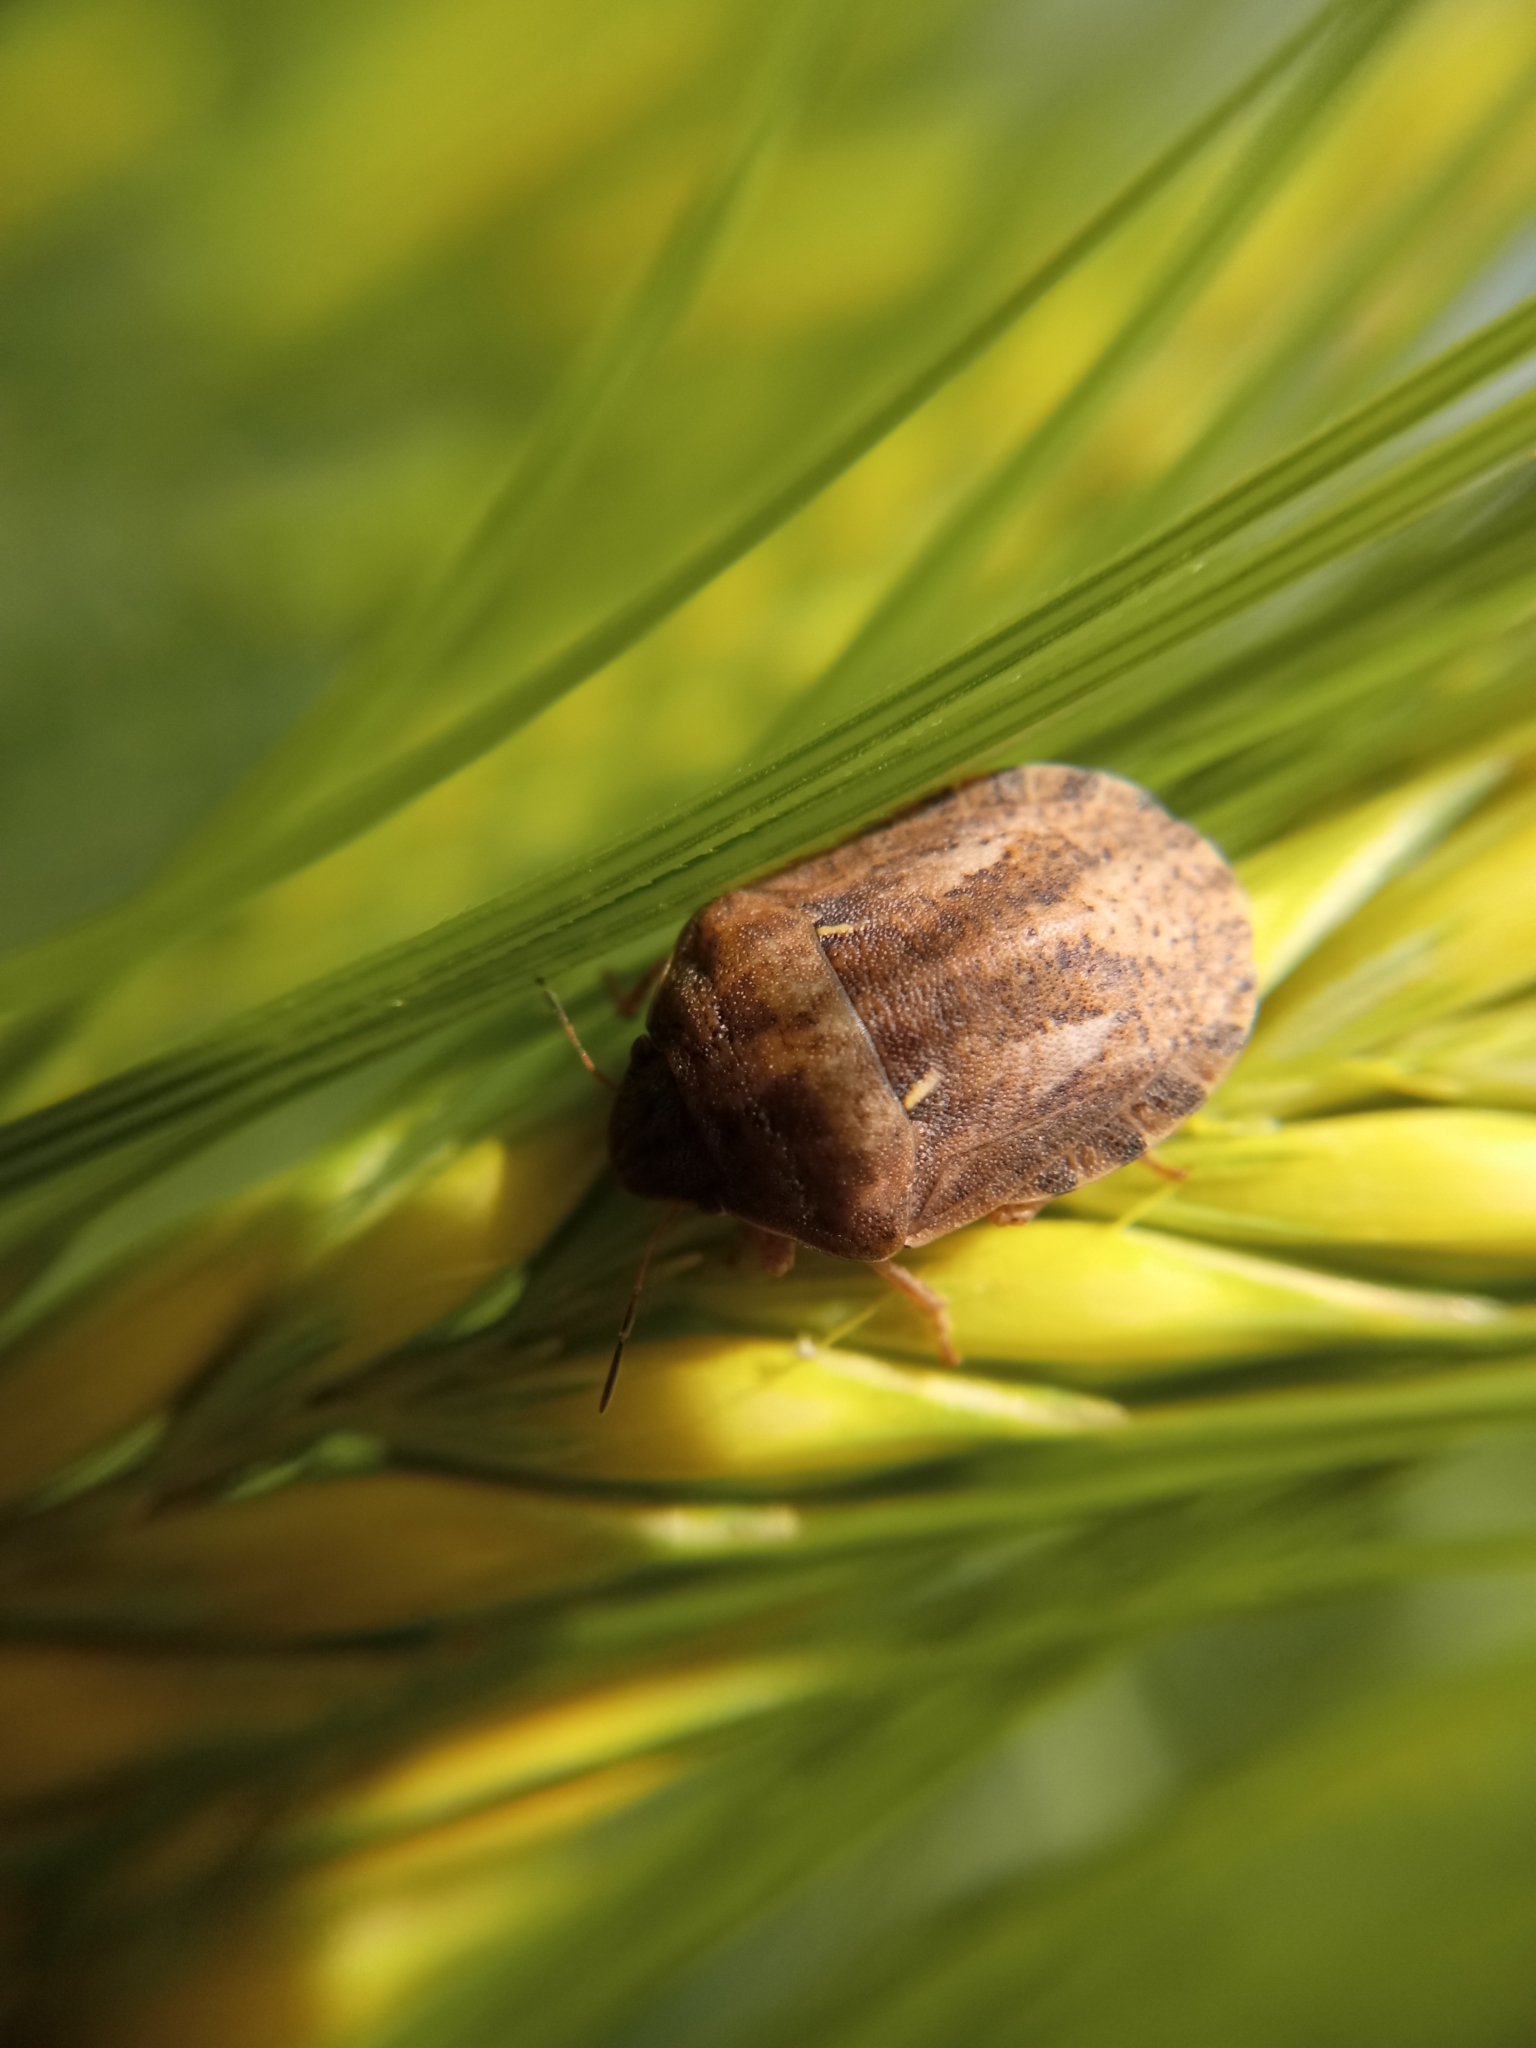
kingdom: Animalia
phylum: Arthropoda
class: Insecta
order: Hemiptera
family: Scutelleridae
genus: Eurygaster
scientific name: Eurygaster maura
